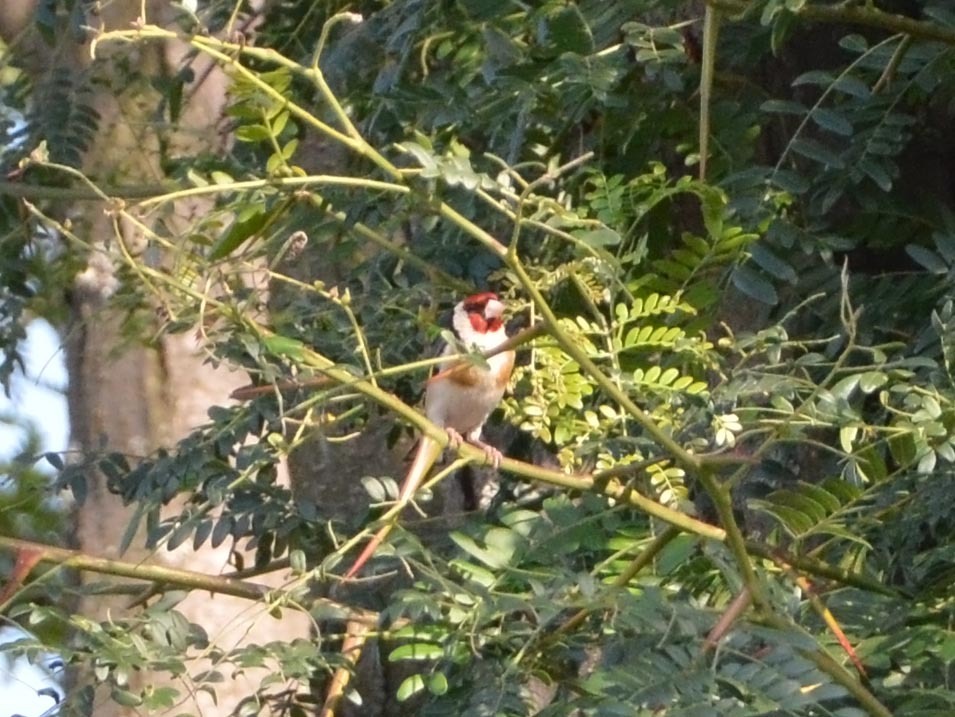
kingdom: Animalia
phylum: Chordata
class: Aves
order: Passeriformes
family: Fringillidae
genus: Carduelis
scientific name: Carduelis carduelis
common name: European goldfinch
